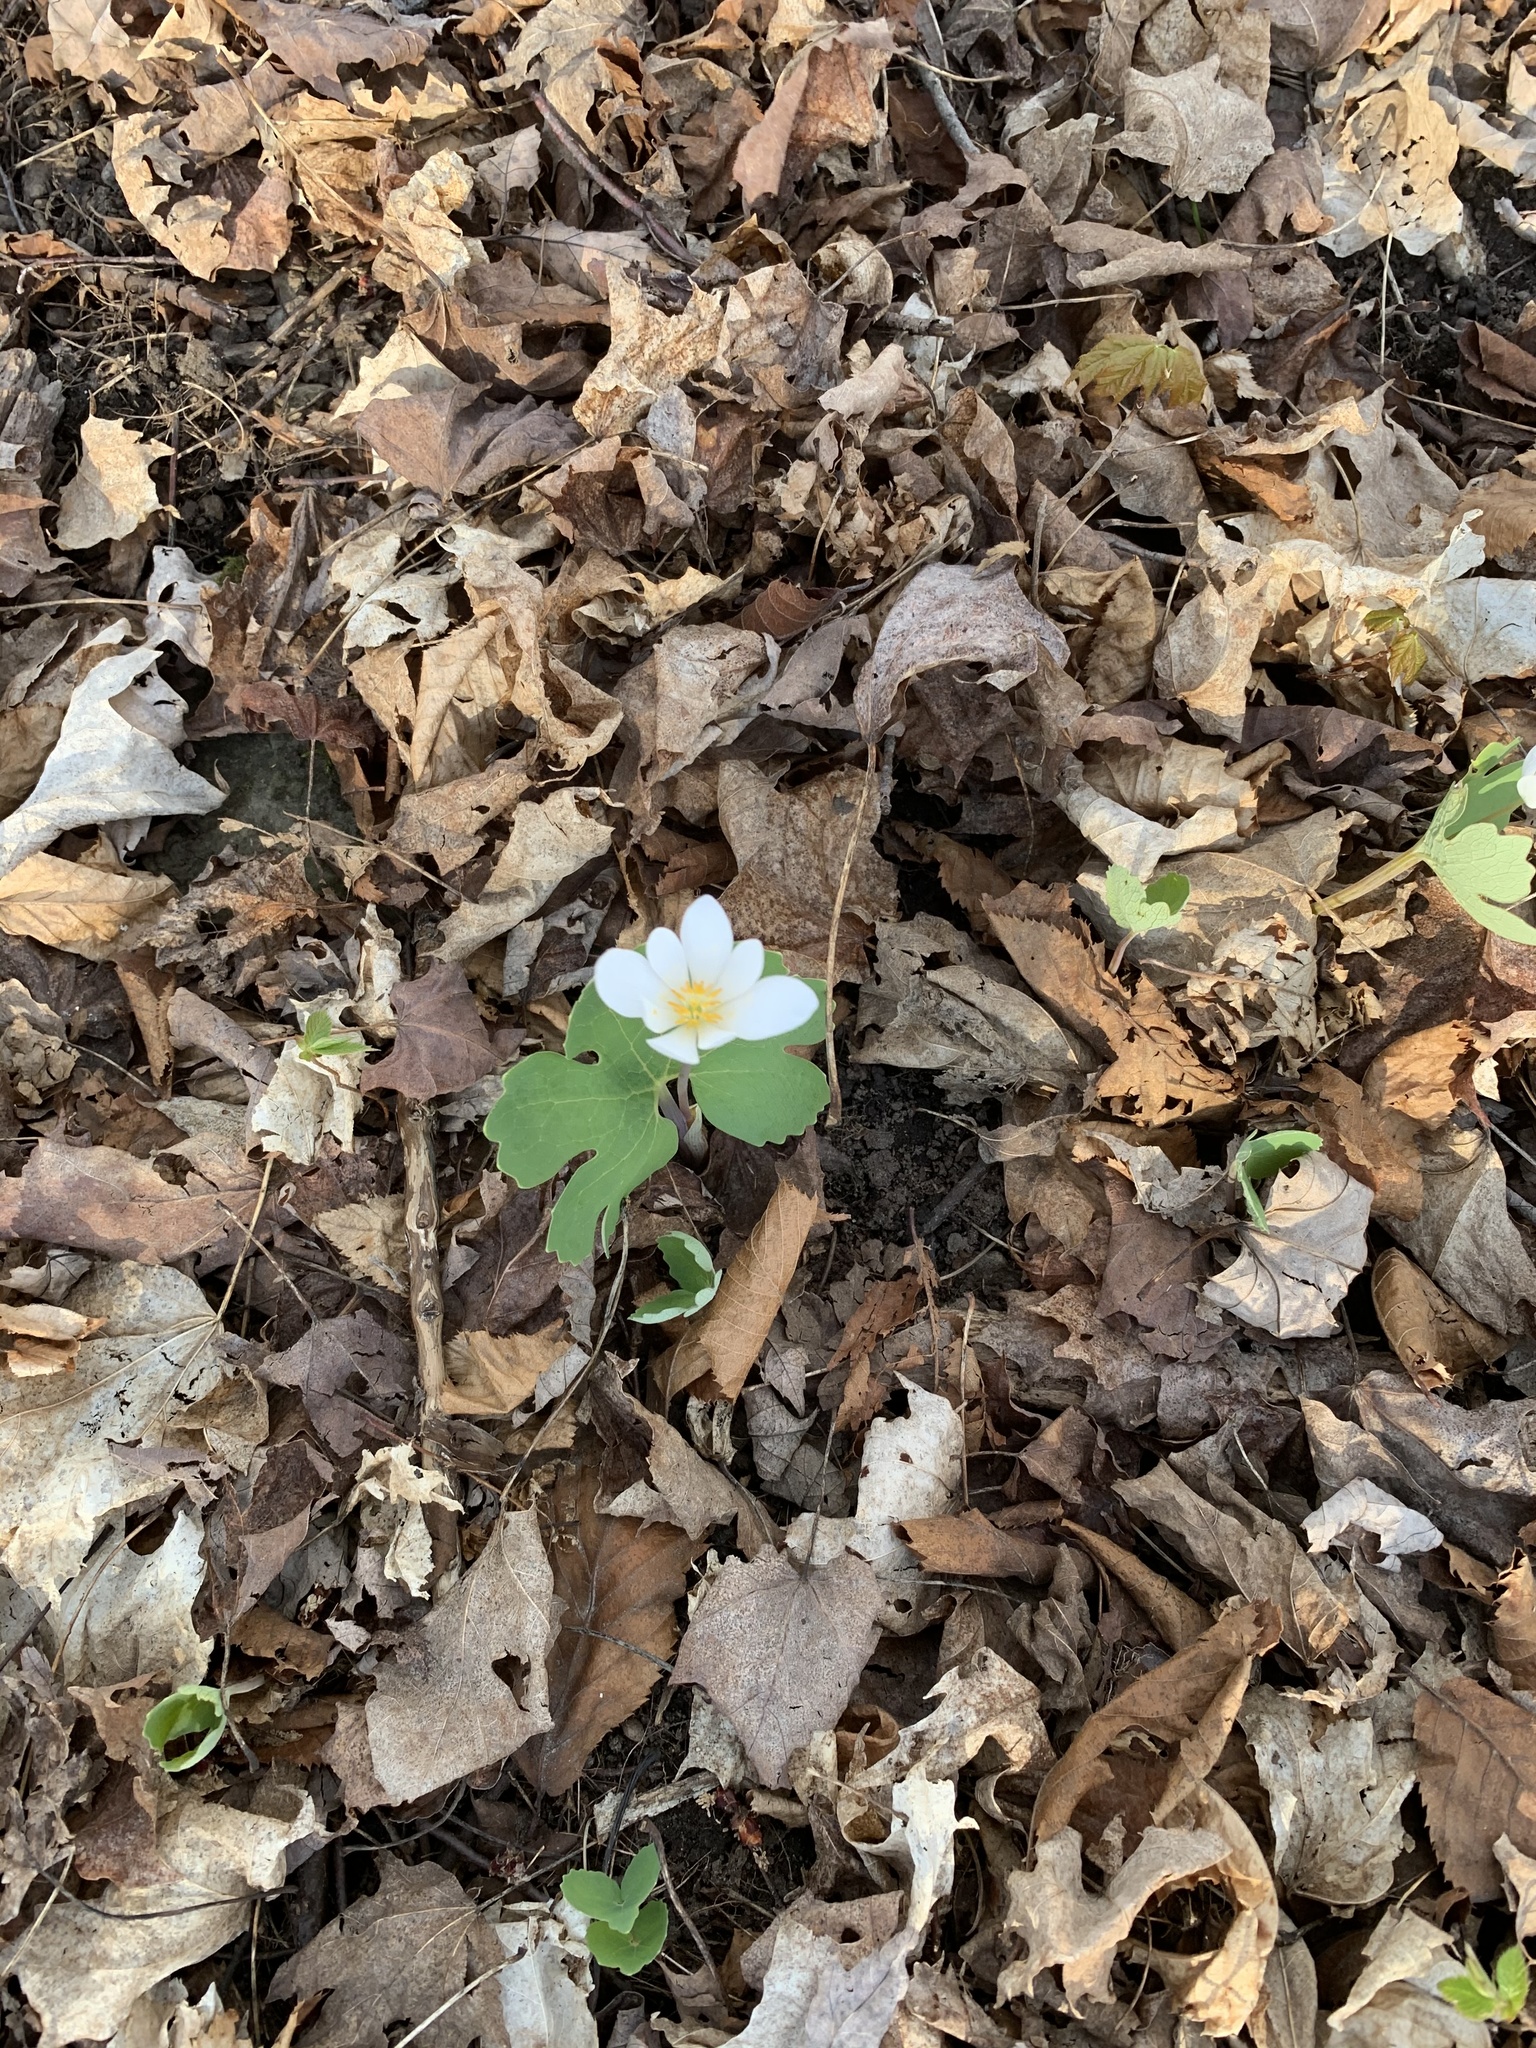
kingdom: Plantae
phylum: Tracheophyta
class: Magnoliopsida
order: Ranunculales
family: Papaveraceae
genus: Sanguinaria
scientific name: Sanguinaria canadensis
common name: Bloodroot
